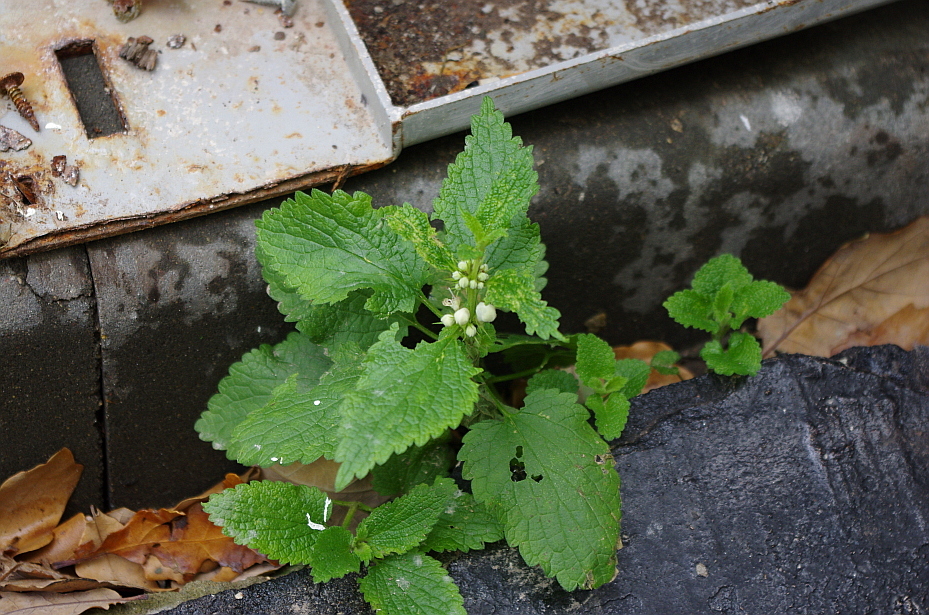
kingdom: Plantae
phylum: Tracheophyta
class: Magnoliopsida
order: Lamiales
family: Lamiaceae
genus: Lamium
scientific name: Lamium album
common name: White dead-nettle
